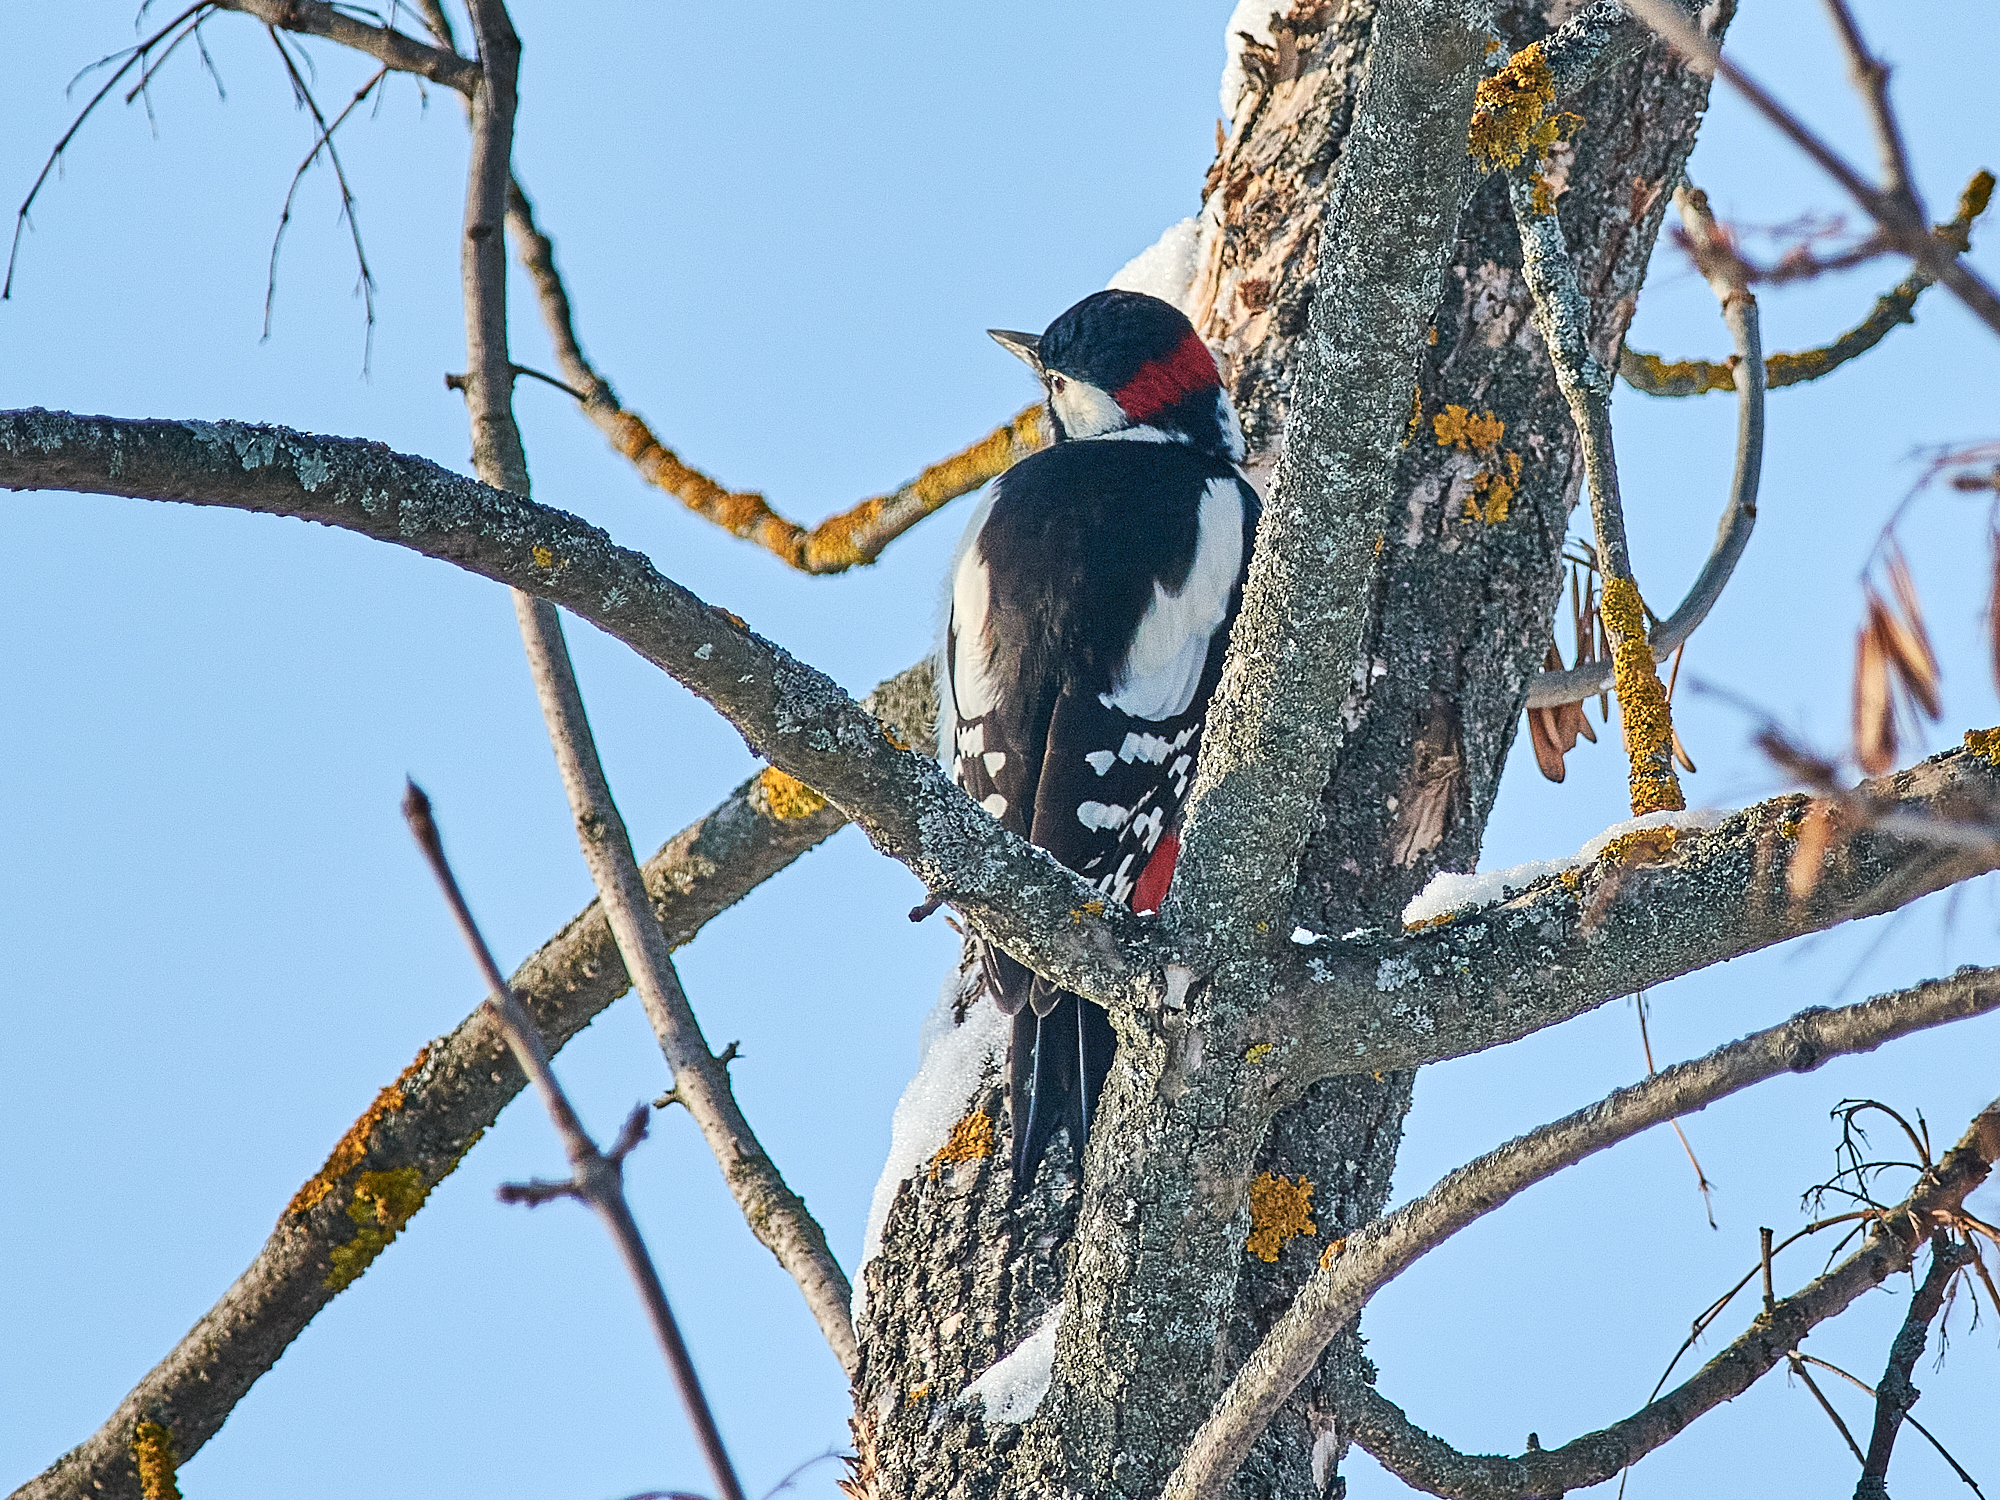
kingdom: Animalia
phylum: Chordata
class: Aves
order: Piciformes
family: Picidae
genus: Dendrocopos
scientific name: Dendrocopos major
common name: Great spotted woodpecker
